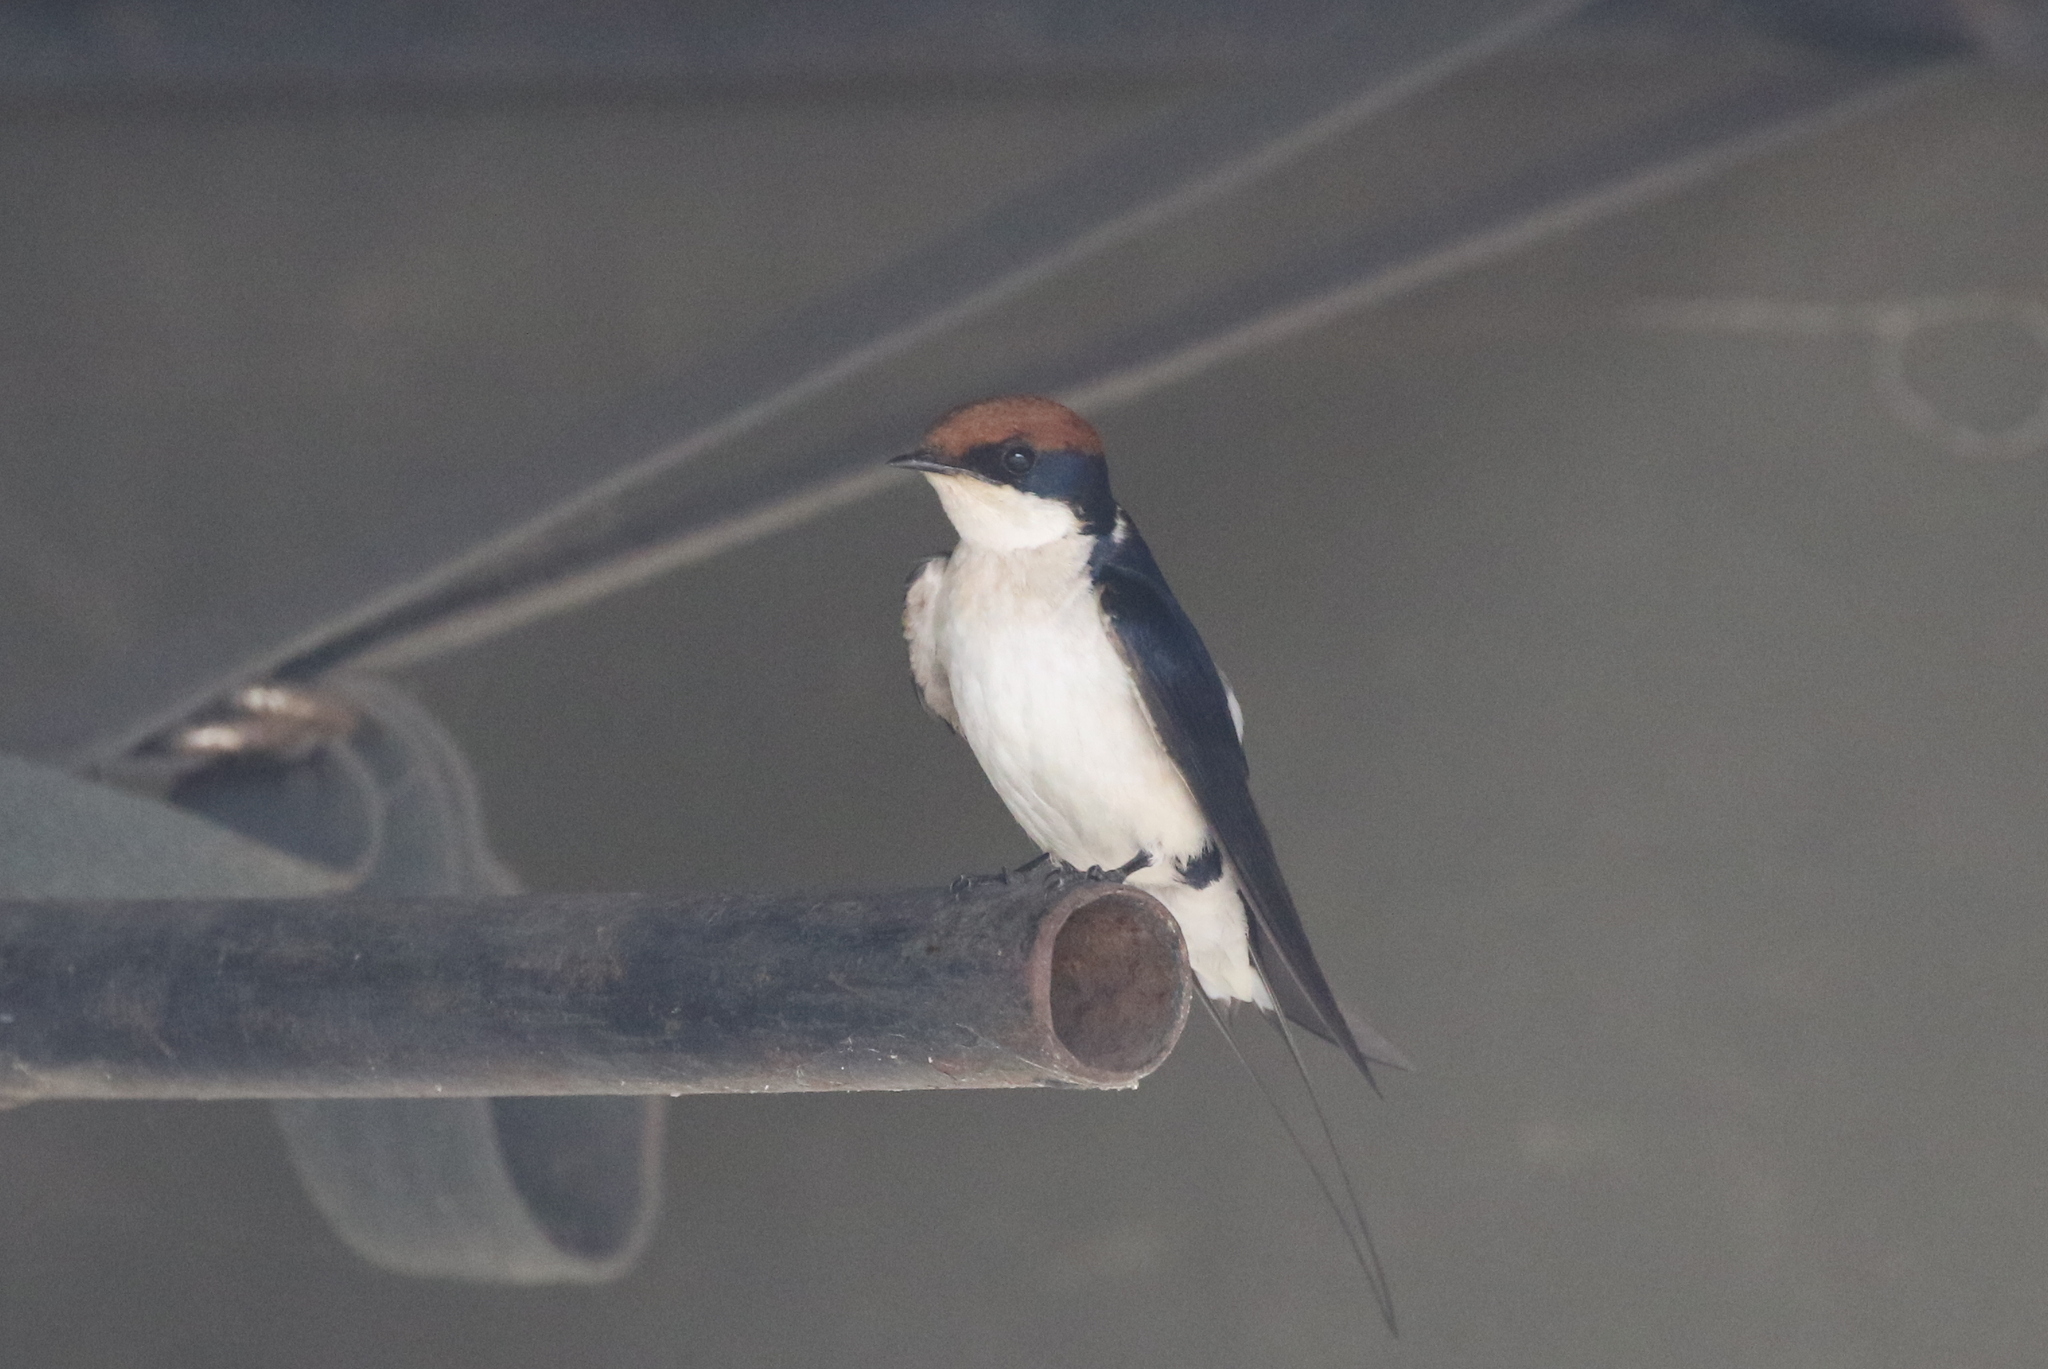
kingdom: Animalia
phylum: Chordata
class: Aves
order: Passeriformes
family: Hirundinidae
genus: Hirundo
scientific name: Hirundo smithii
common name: Wire-tailed swallow
